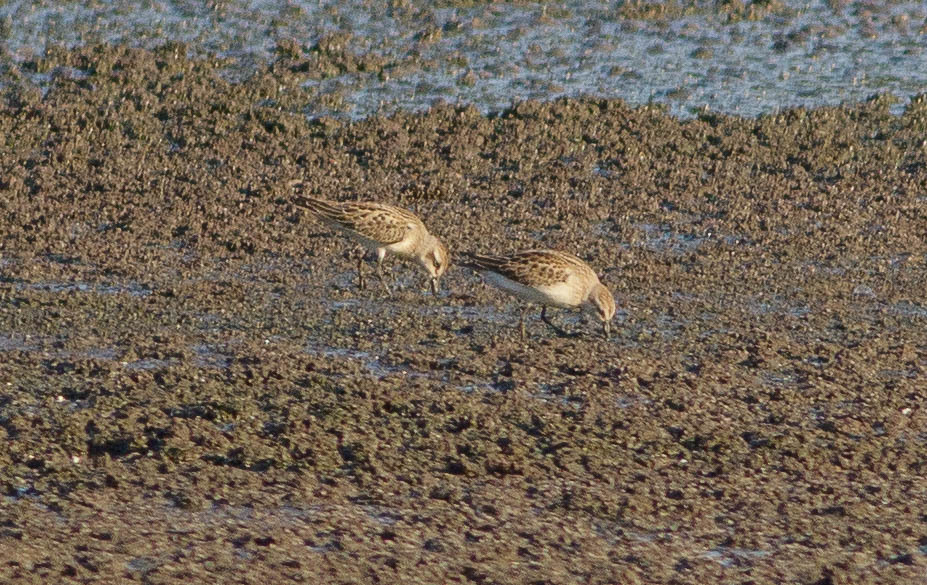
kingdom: Animalia
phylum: Chordata
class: Aves
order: Charadriiformes
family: Scolopacidae
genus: Calidris
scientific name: Calidris minutilla
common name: Least sandpiper
